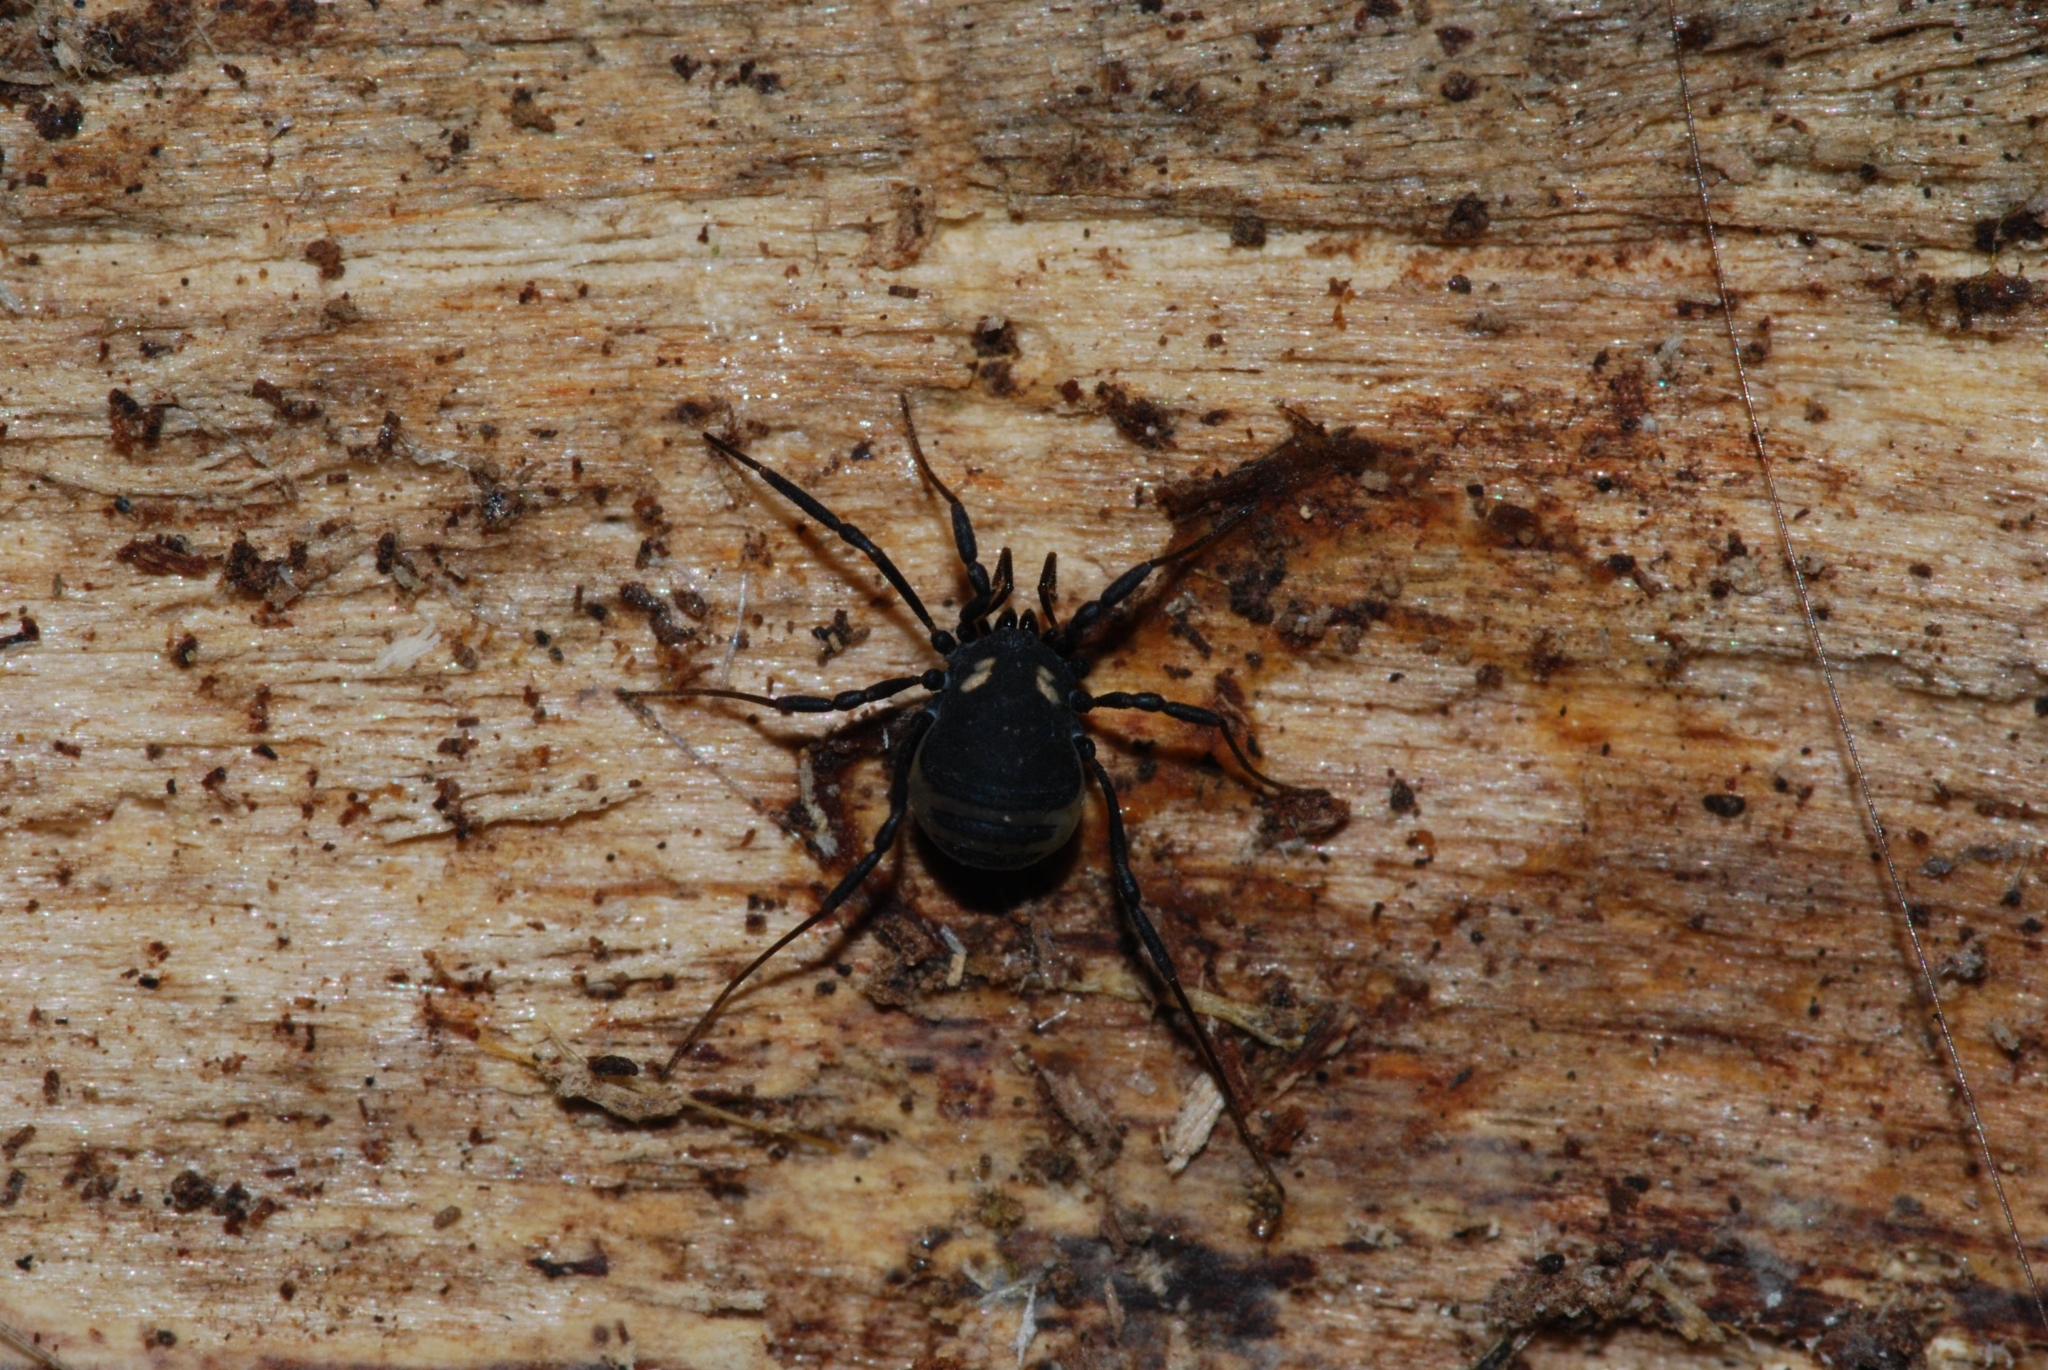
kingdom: Animalia
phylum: Arthropoda
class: Arachnida
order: Opiliones
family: Nemastomatidae
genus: Nemastoma
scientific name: Nemastoma bimaculatum
